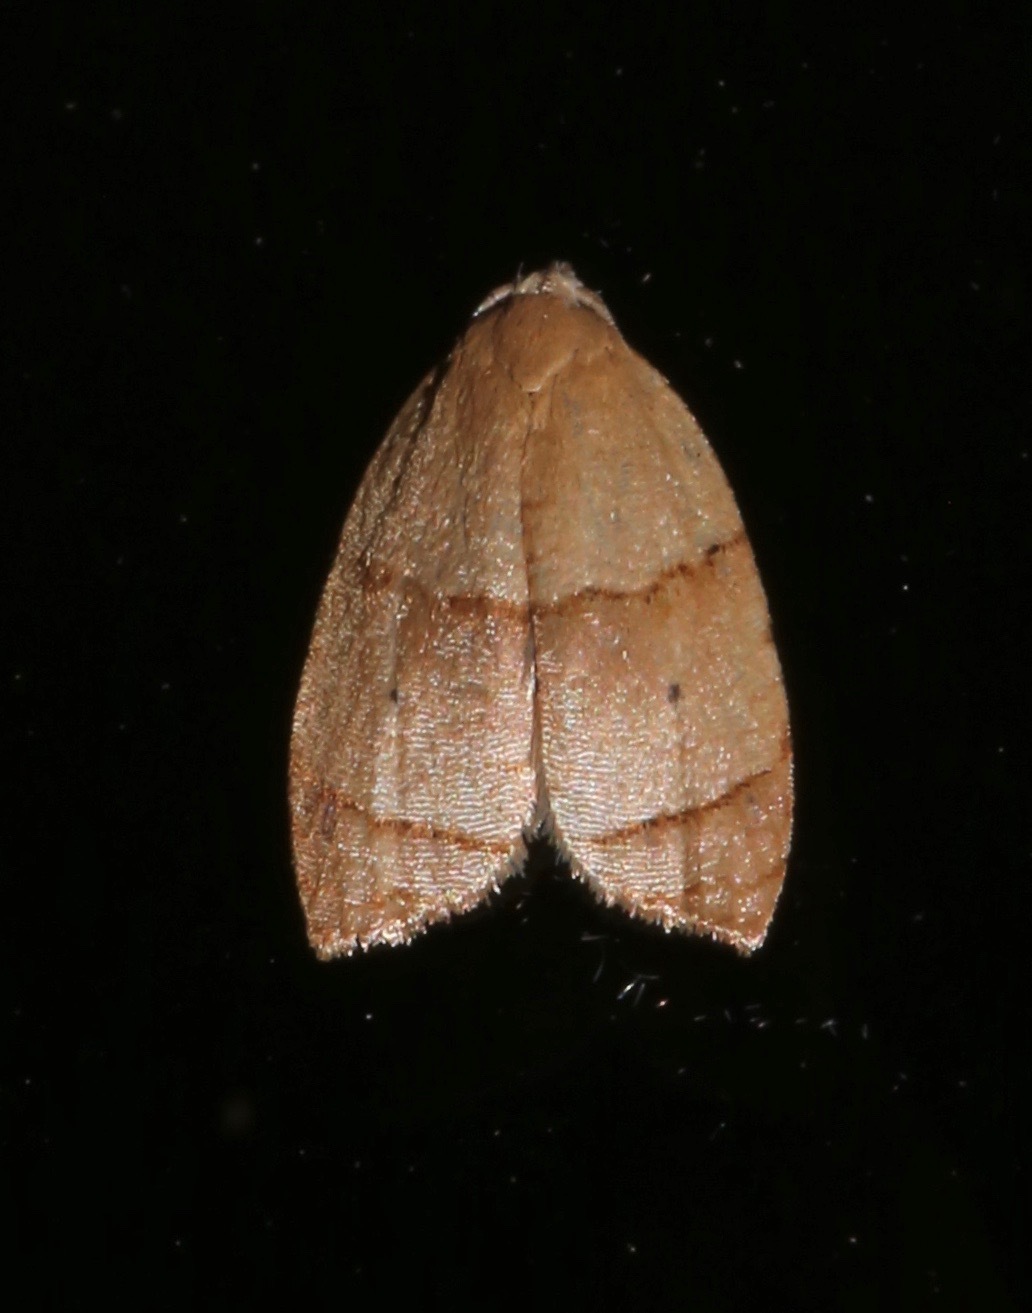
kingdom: Animalia
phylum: Arthropoda
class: Insecta
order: Lepidoptera
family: Tortricidae
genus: Coelostathma
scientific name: Coelostathma discopunctana
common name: Batman moth
